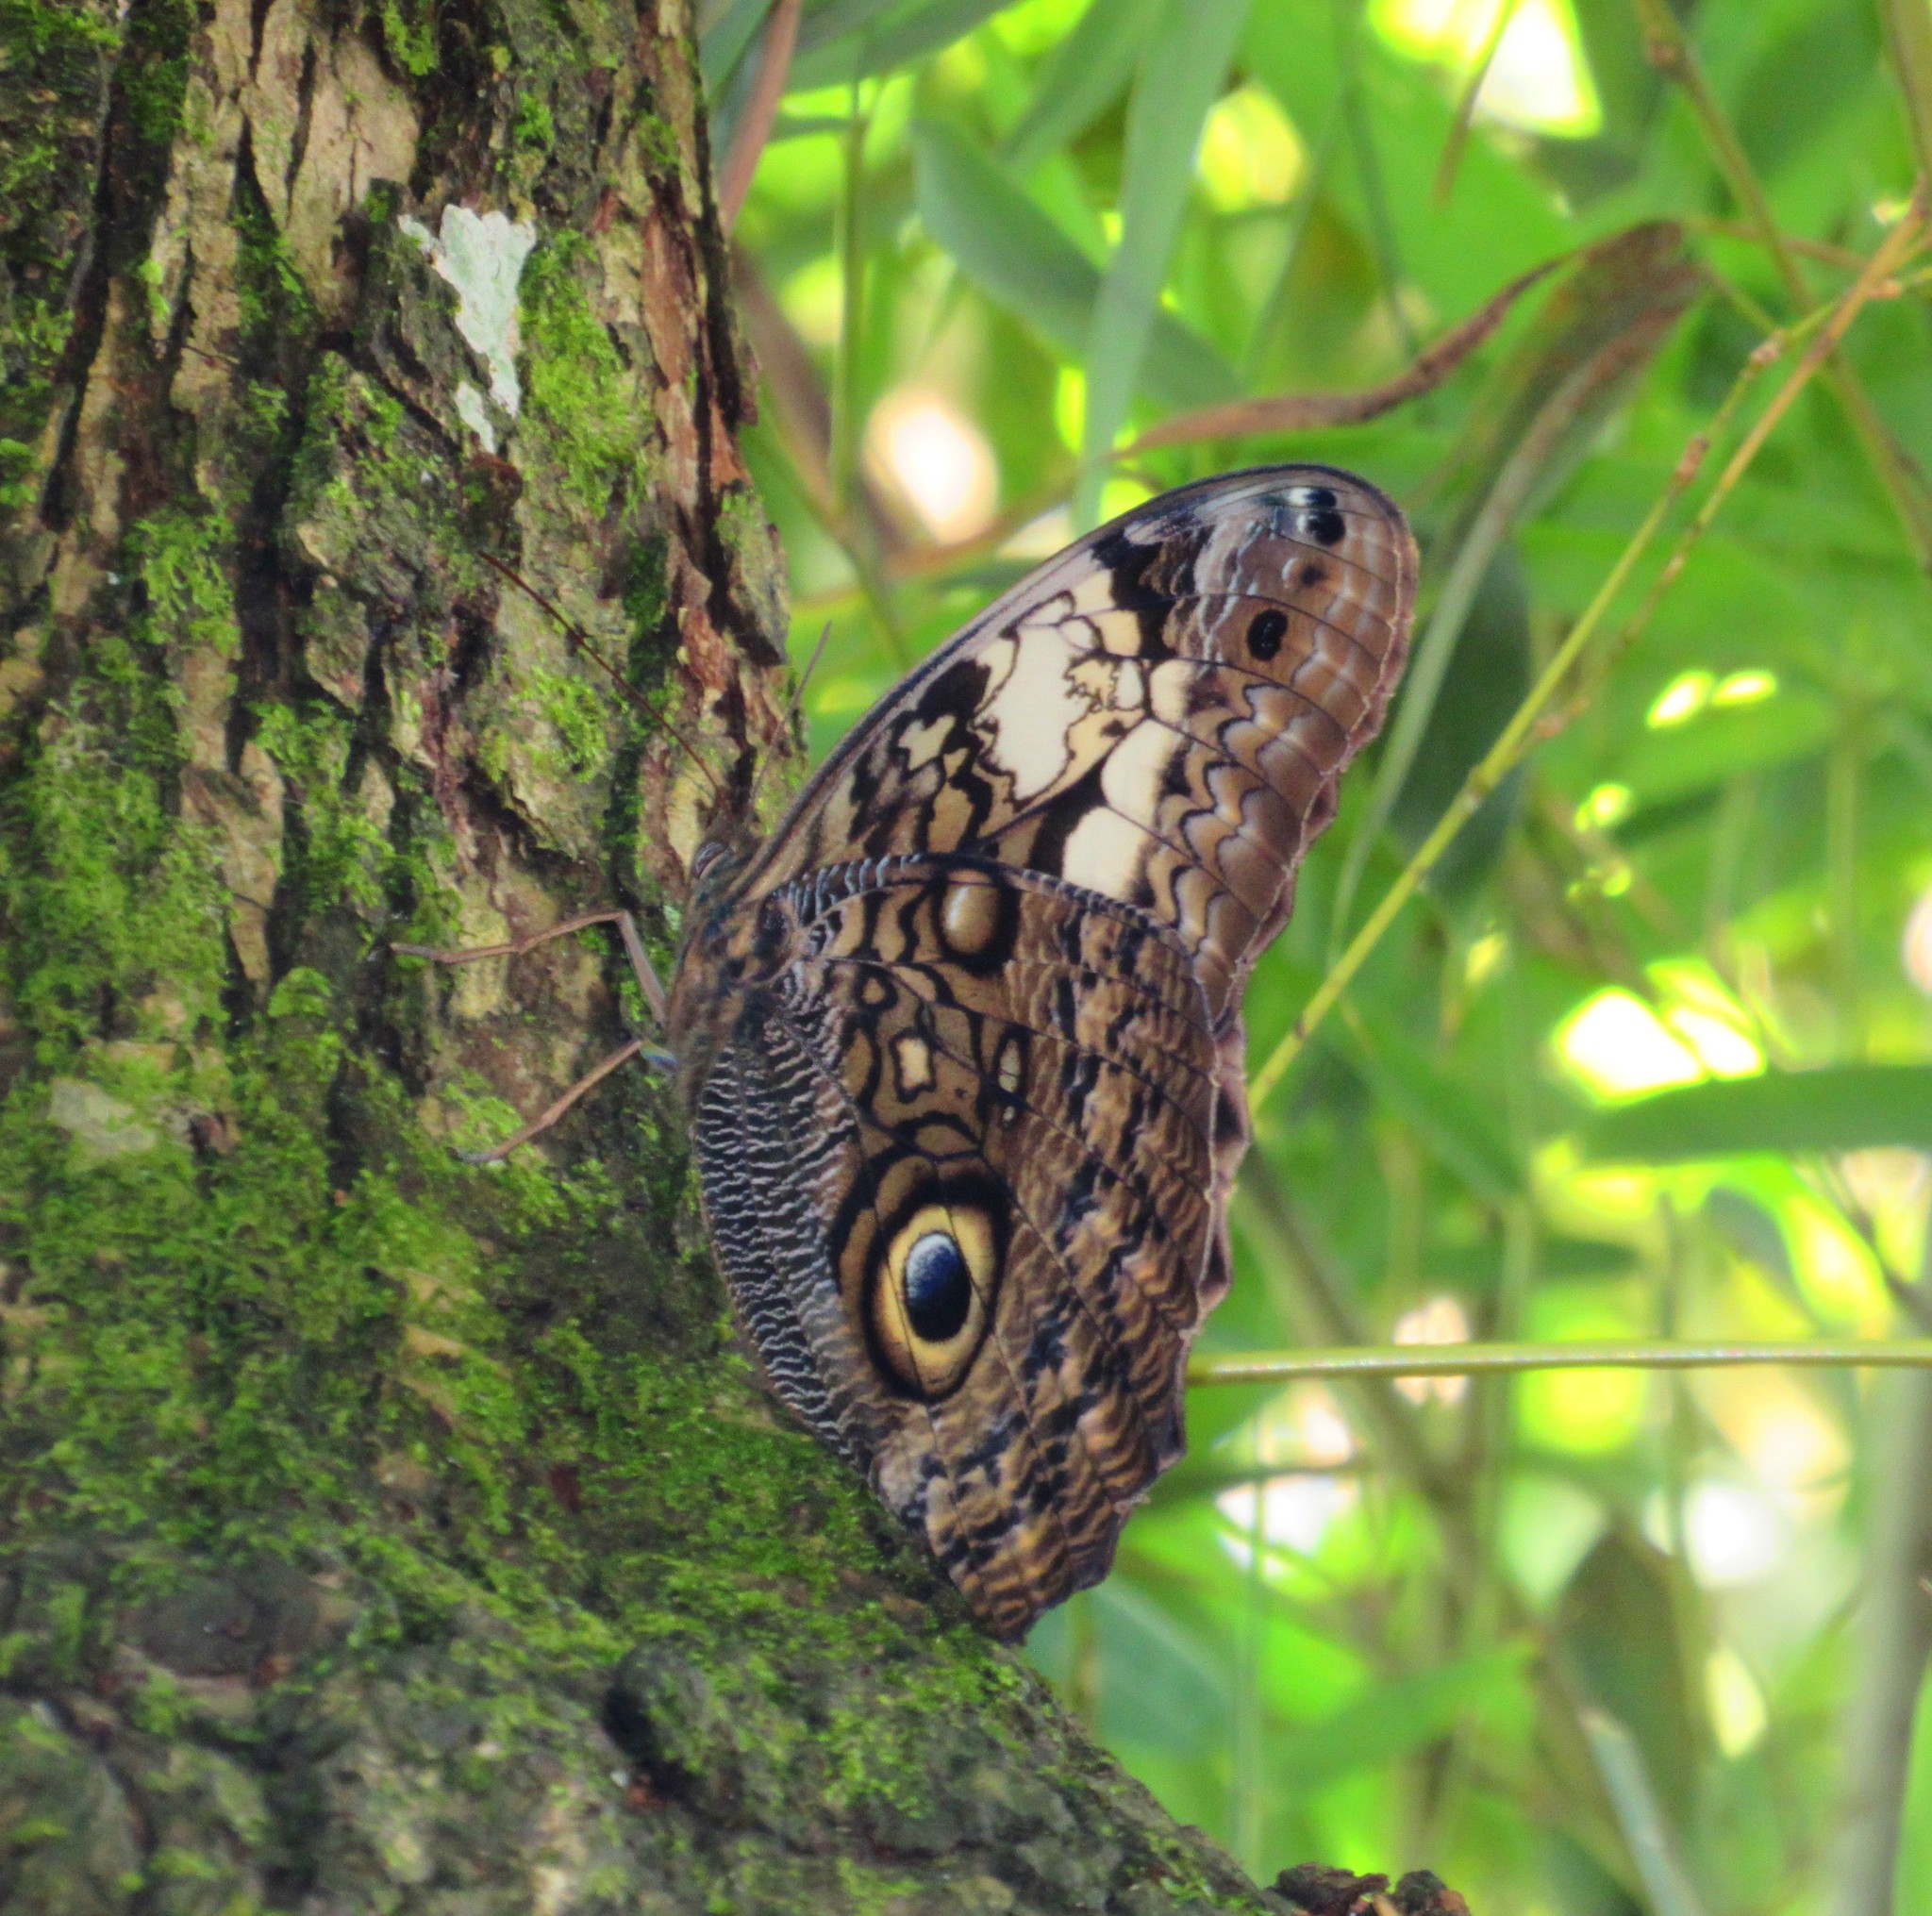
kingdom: Animalia
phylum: Arthropoda
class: Insecta
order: Lepidoptera
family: Nymphalidae
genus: Caligo
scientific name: Caligo martia
